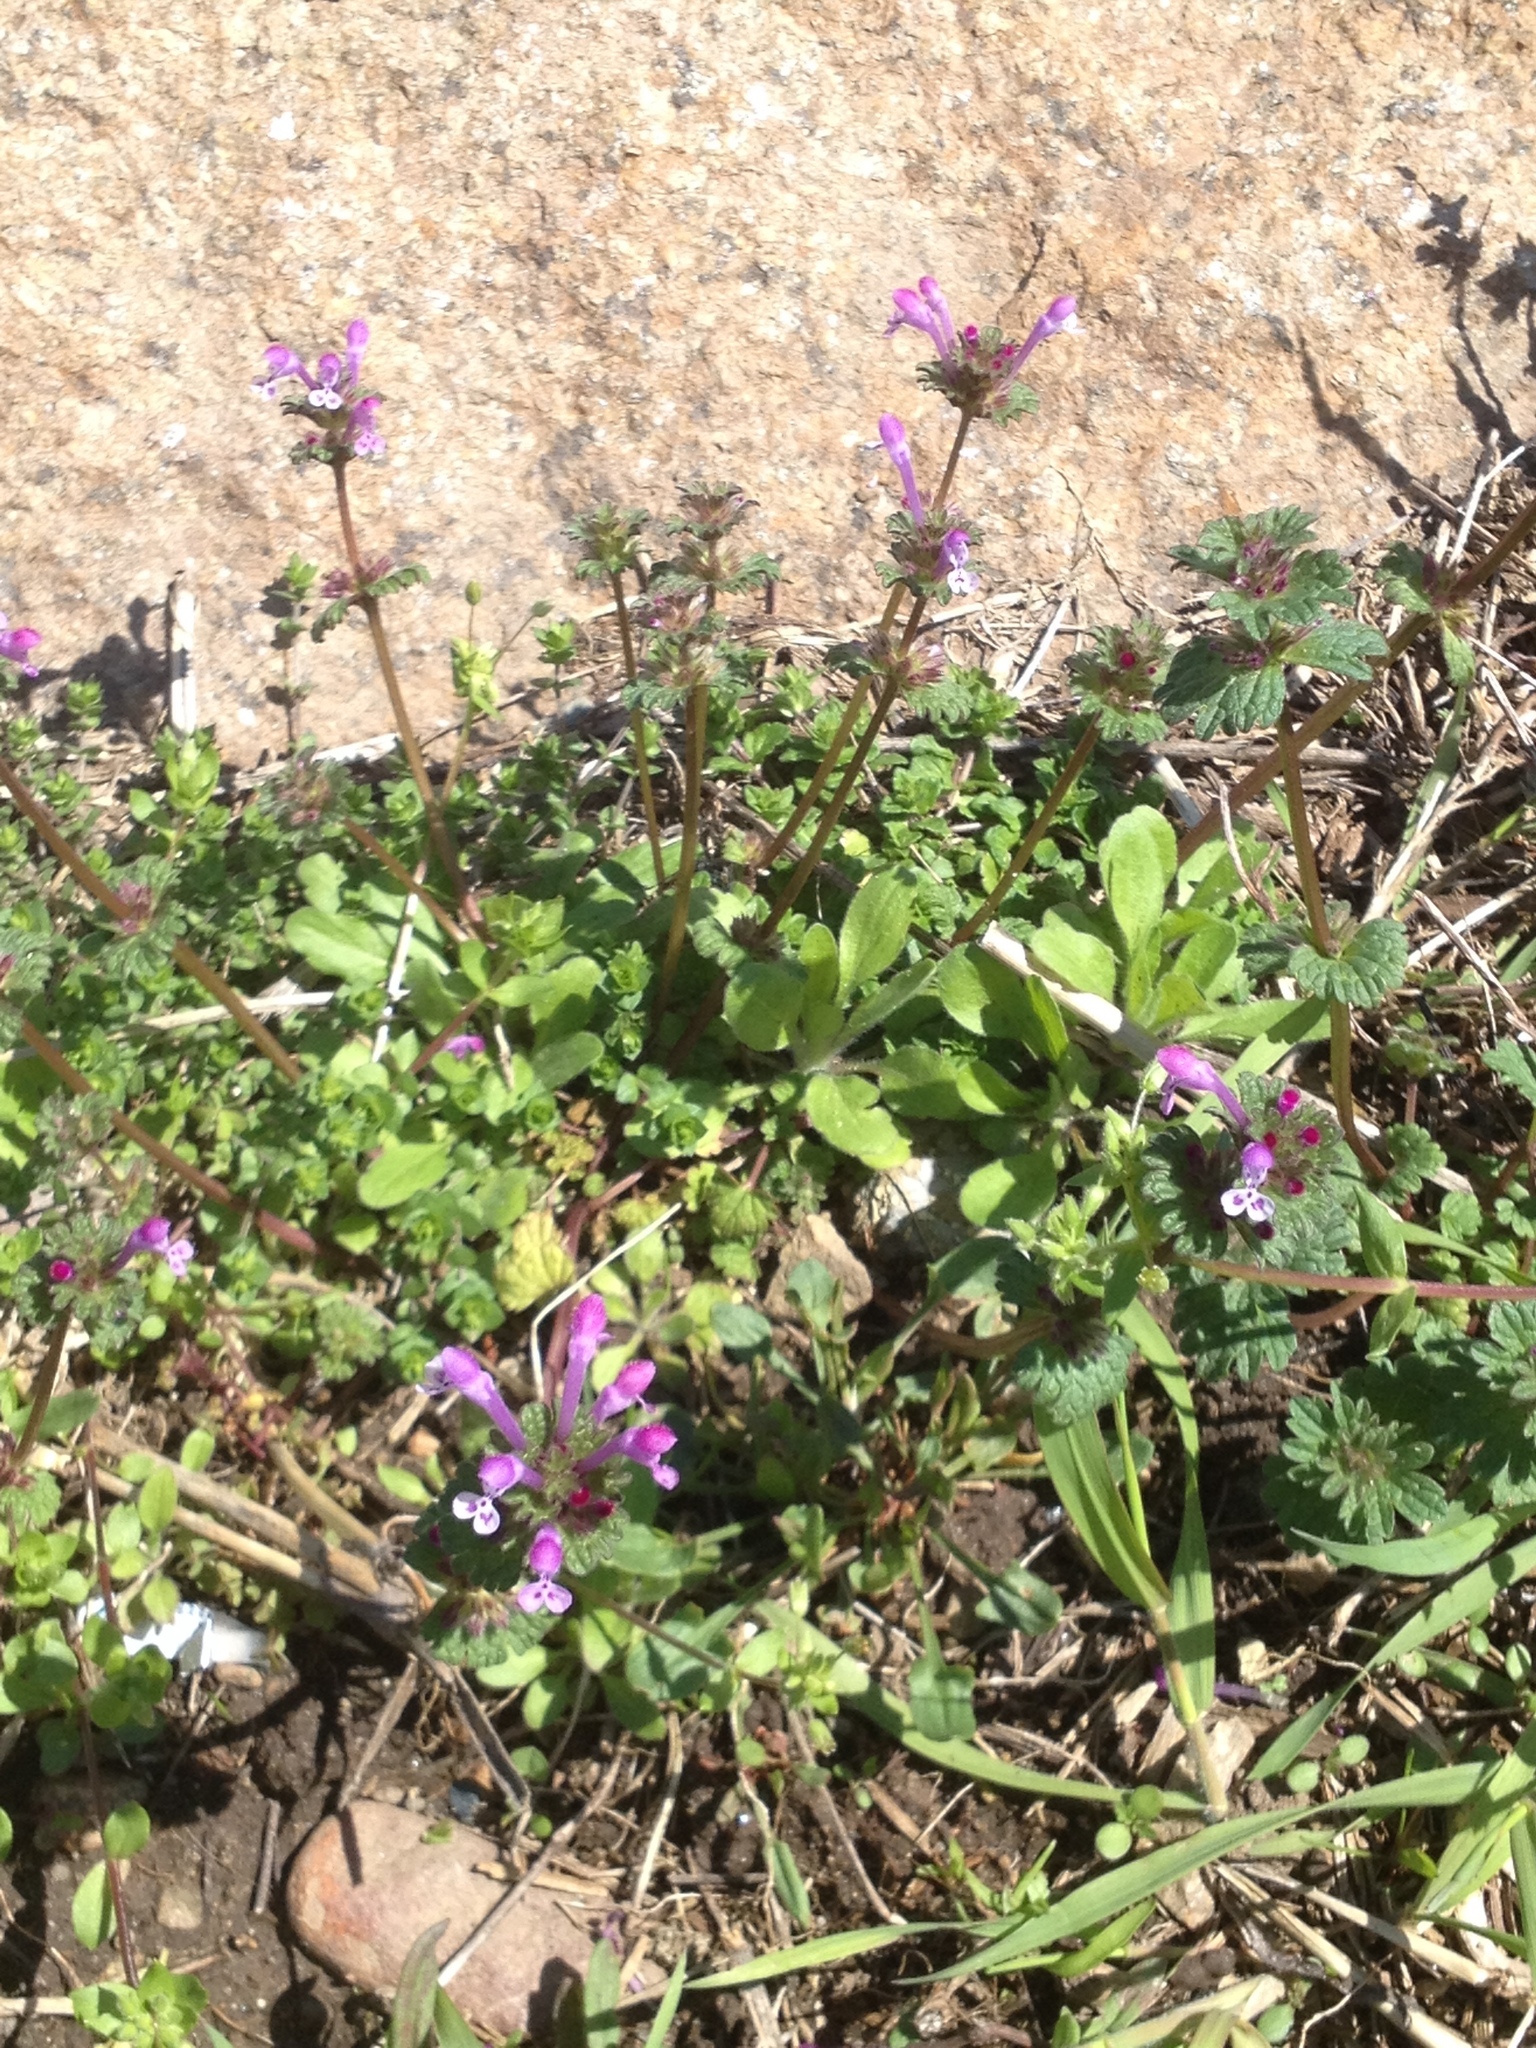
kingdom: Plantae
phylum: Tracheophyta
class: Magnoliopsida
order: Lamiales
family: Lamiaceae
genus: Lamium
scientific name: Lamium amplexicaule
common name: Henbit dead-nettle
